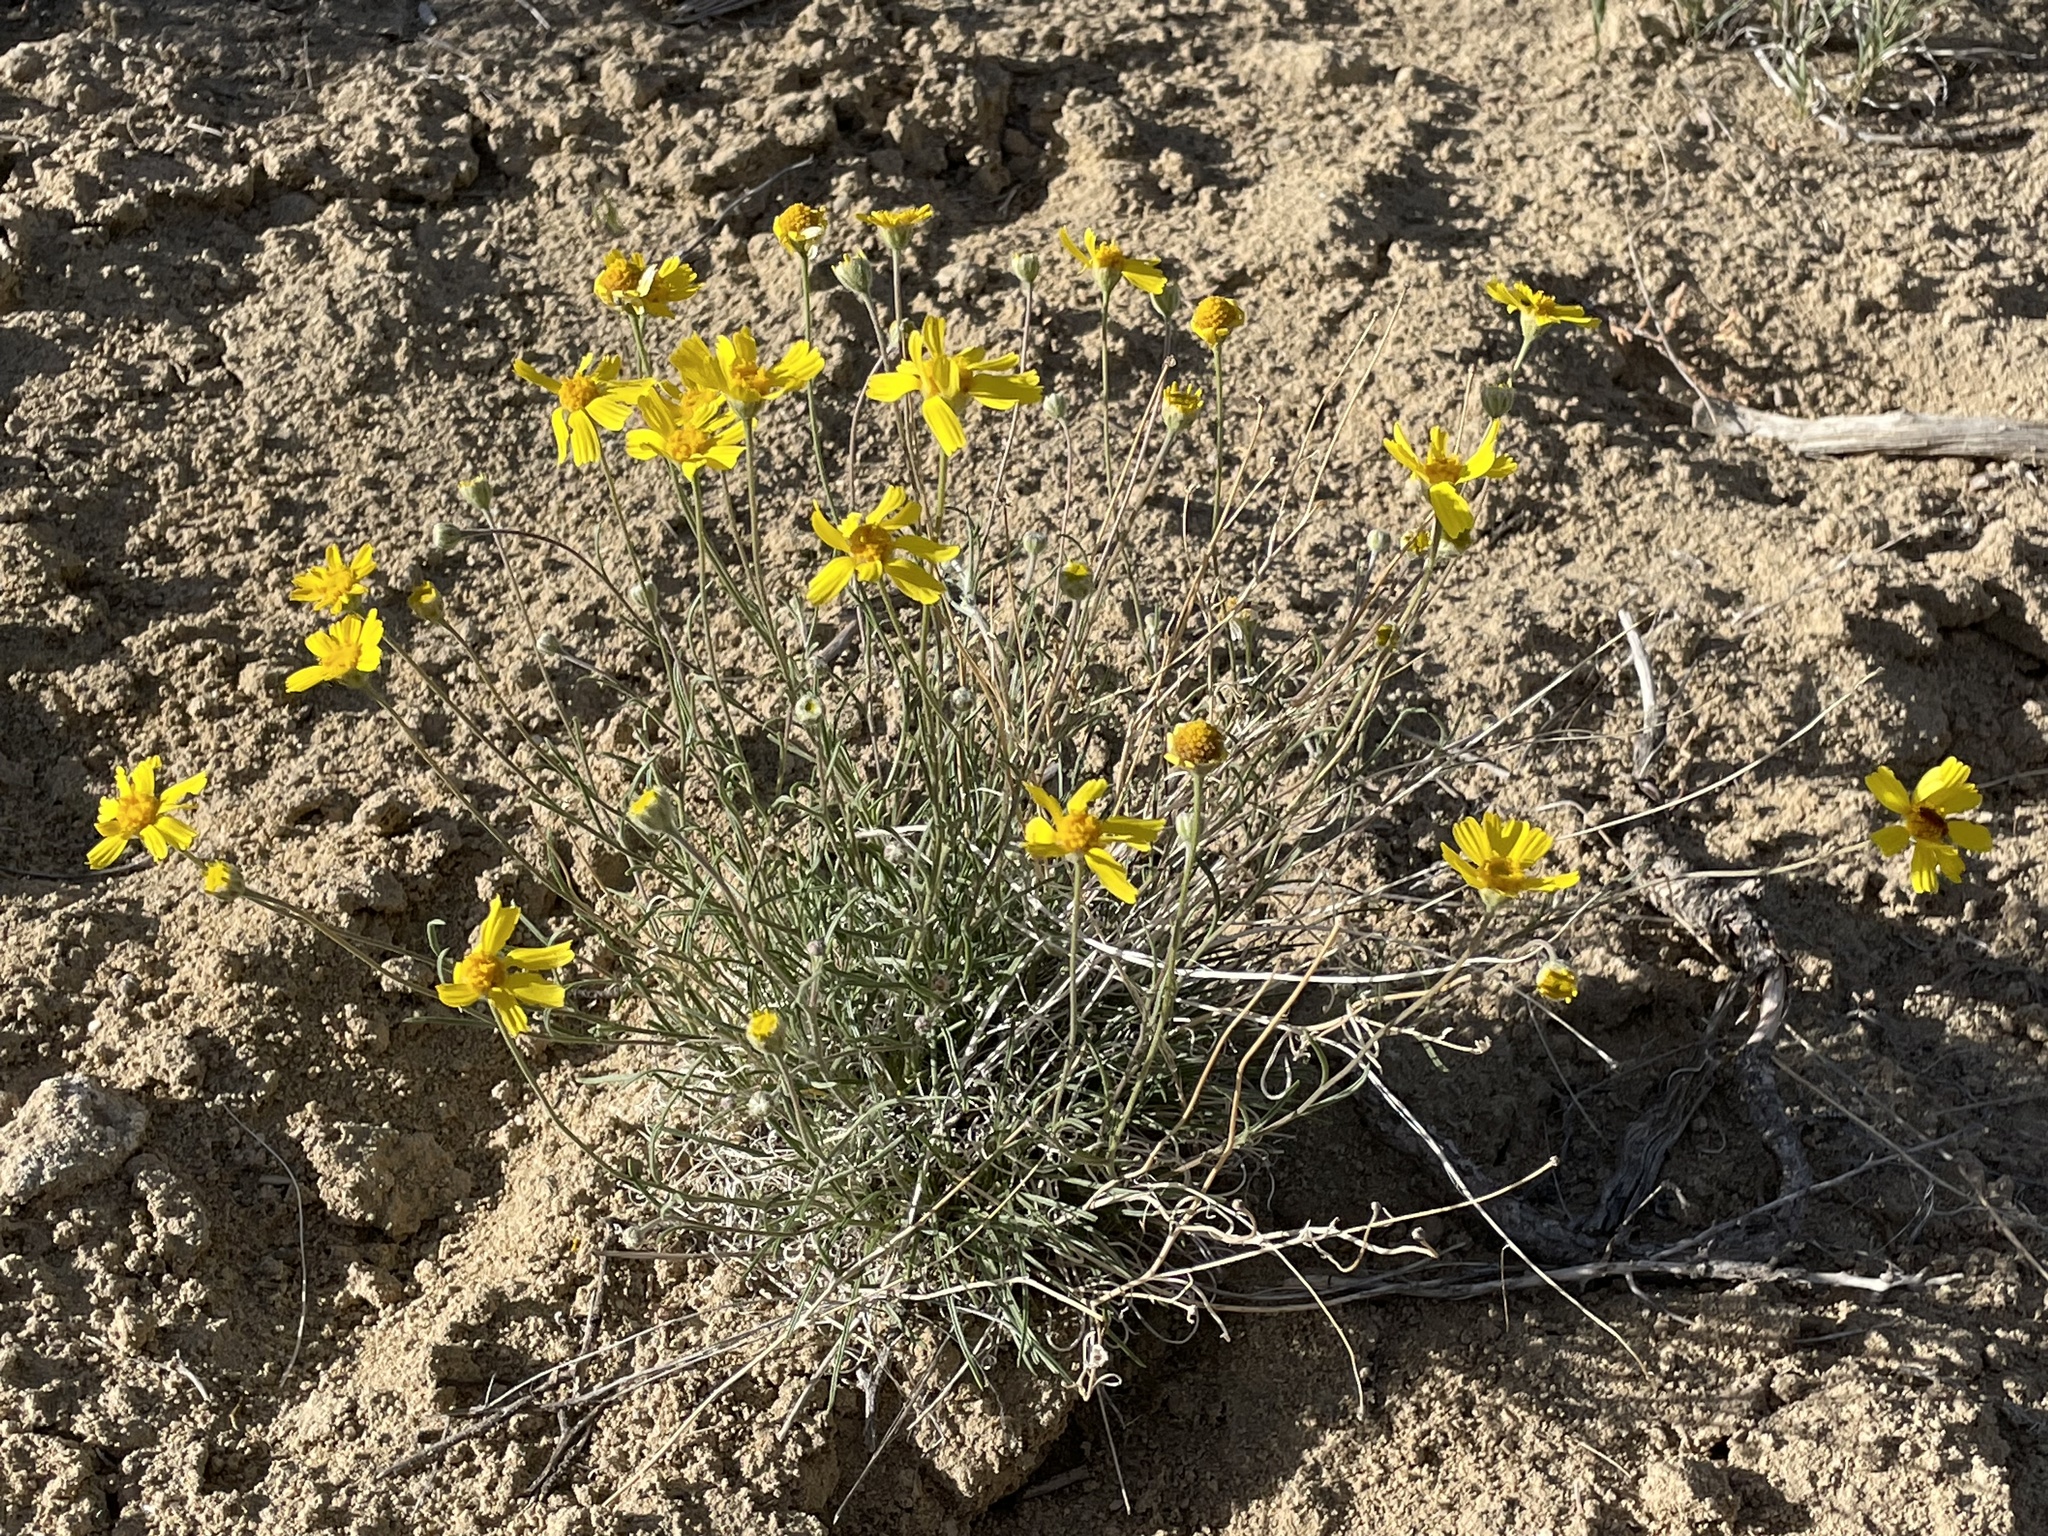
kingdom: Plantae
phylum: Tracheophyta
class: Magnoliopsida
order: Asterales
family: Asteraceae
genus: Tetraneuris
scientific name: Tetraneuris ivesiana
